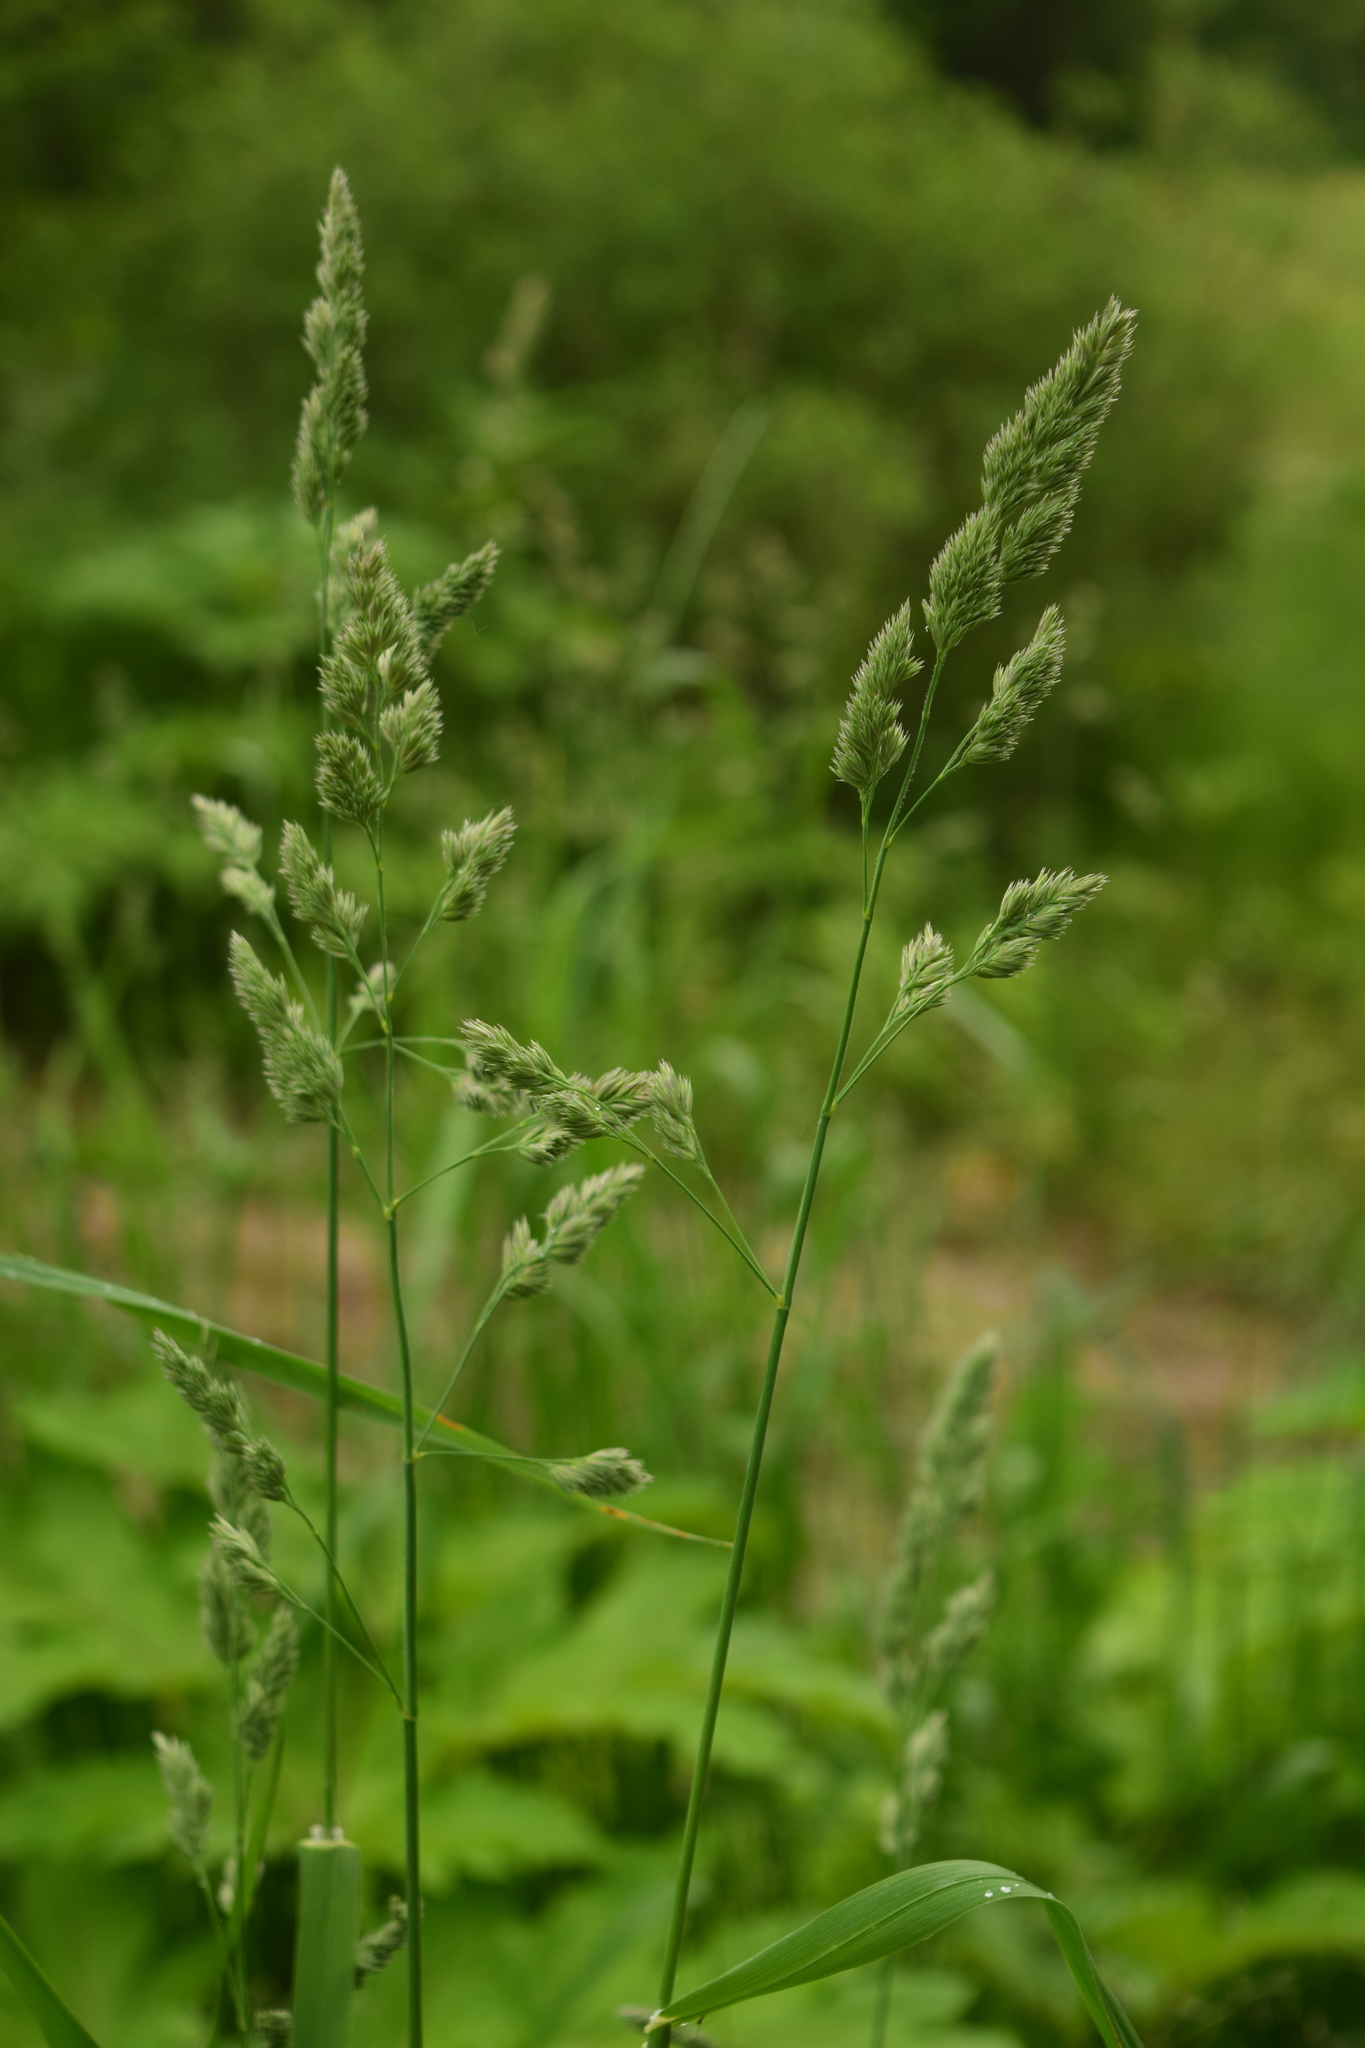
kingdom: Plantae
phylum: Tracheophyta
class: Liliopsida
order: Poales
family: Poaceae
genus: Dactylis
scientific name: Dactylis glomerata
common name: Orchardgrass
